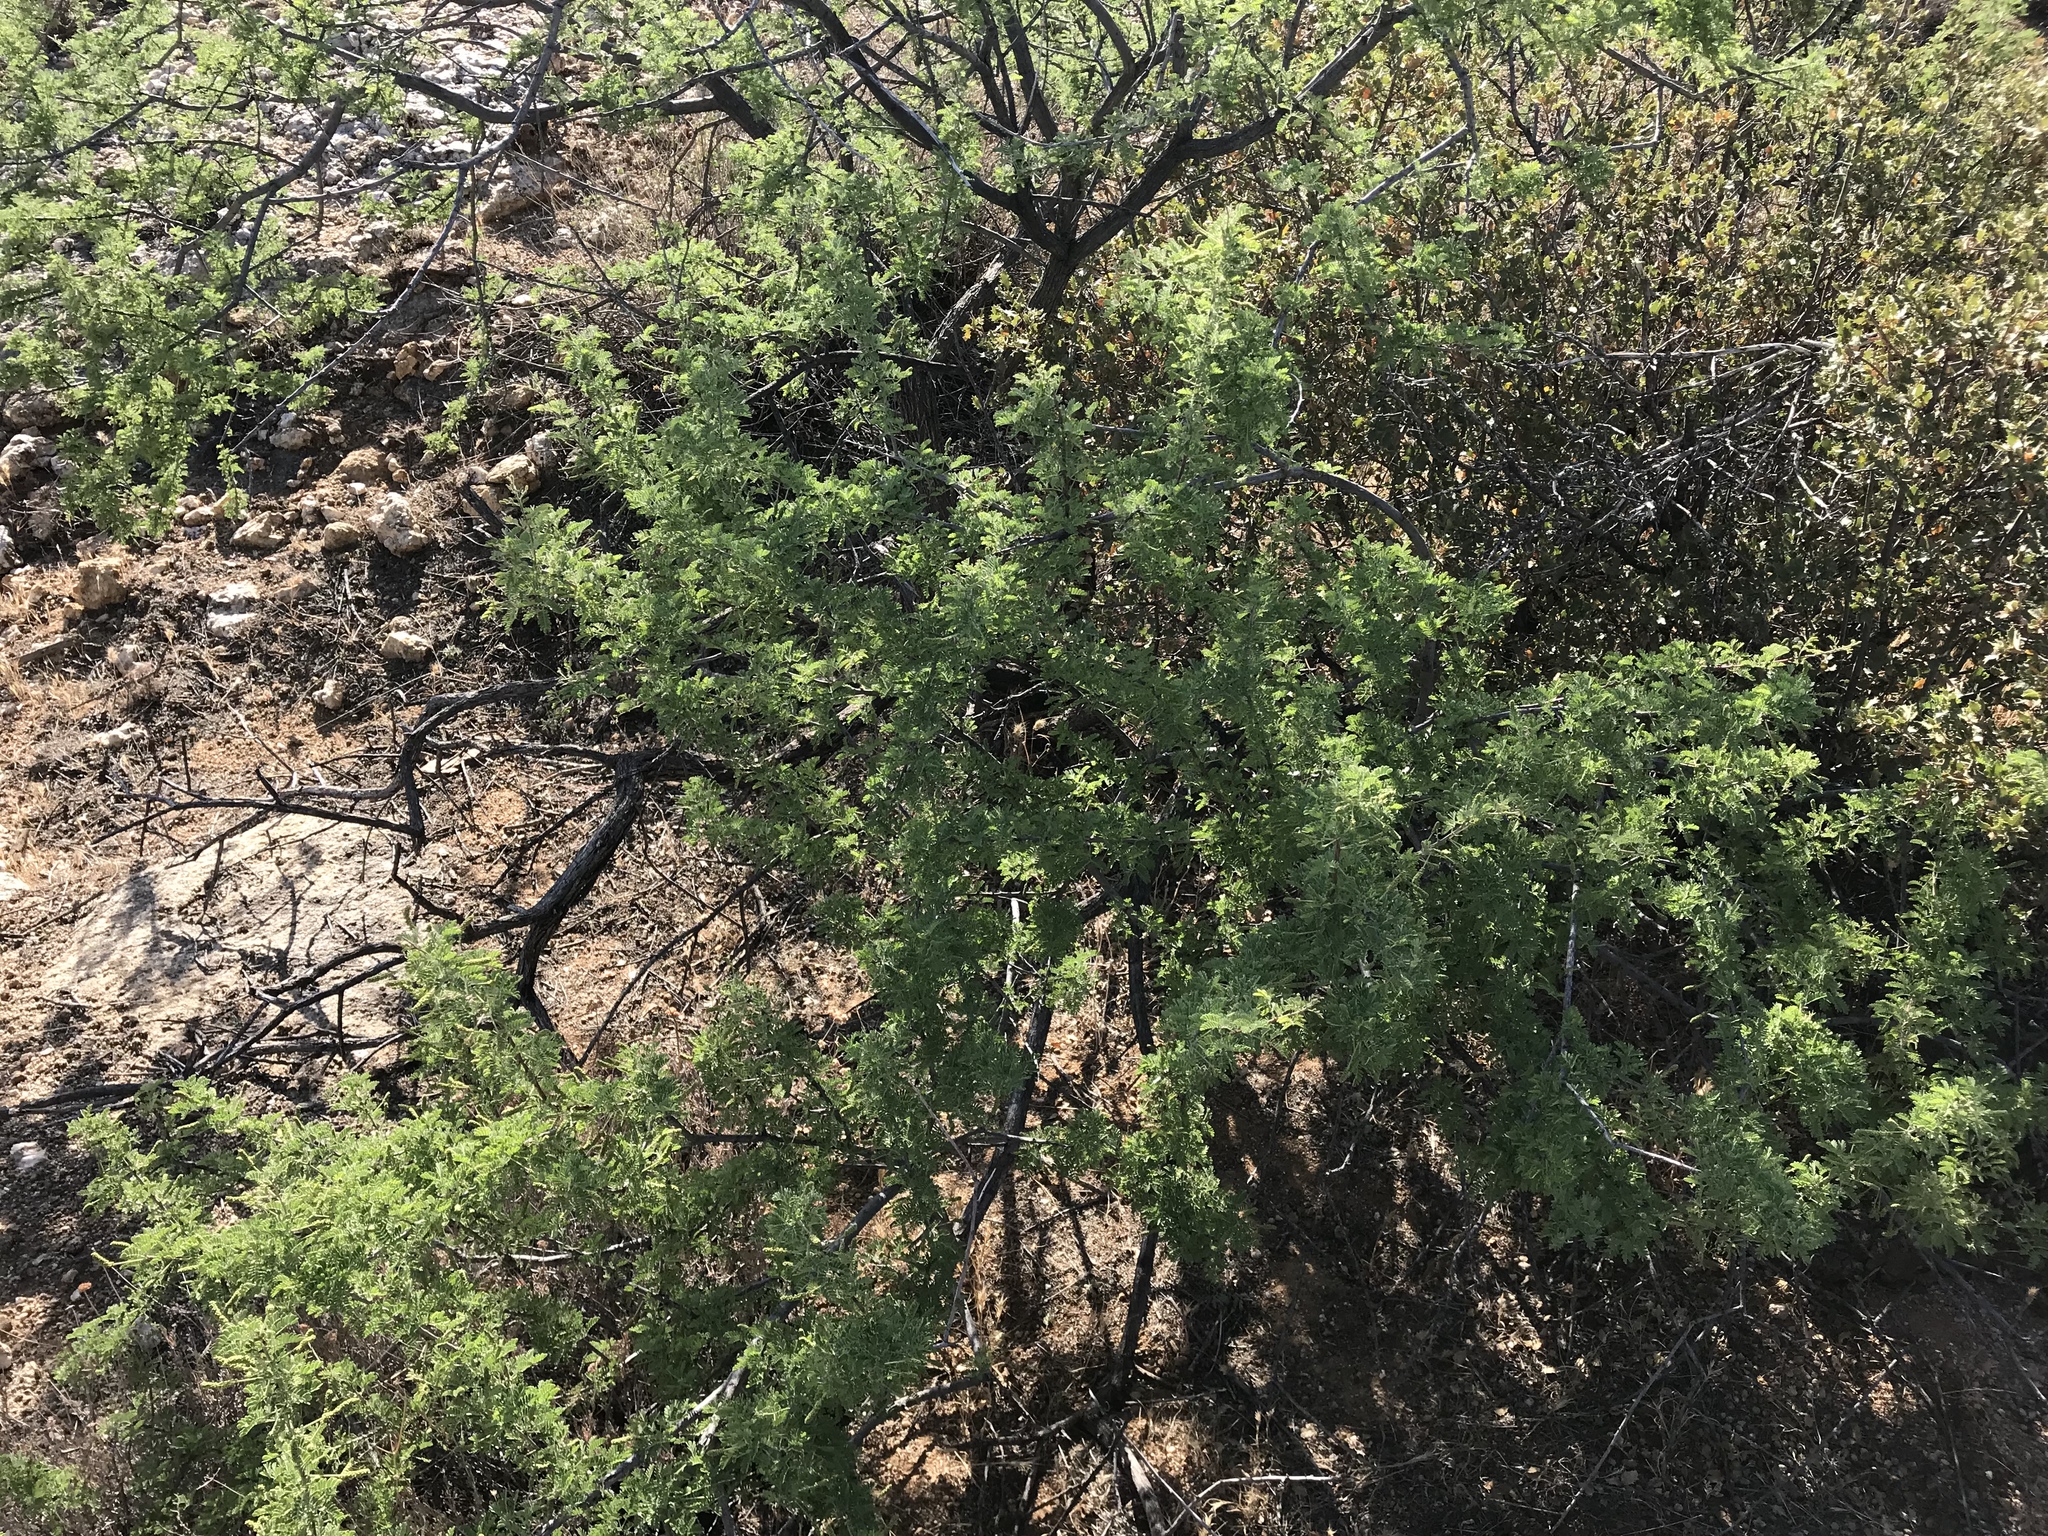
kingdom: Plantae
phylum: Tracheophyta
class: Magnoliopsida
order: Fabales
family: Fabaceae
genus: Senegalia
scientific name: Senegalia greggii
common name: Texas-mimosa
